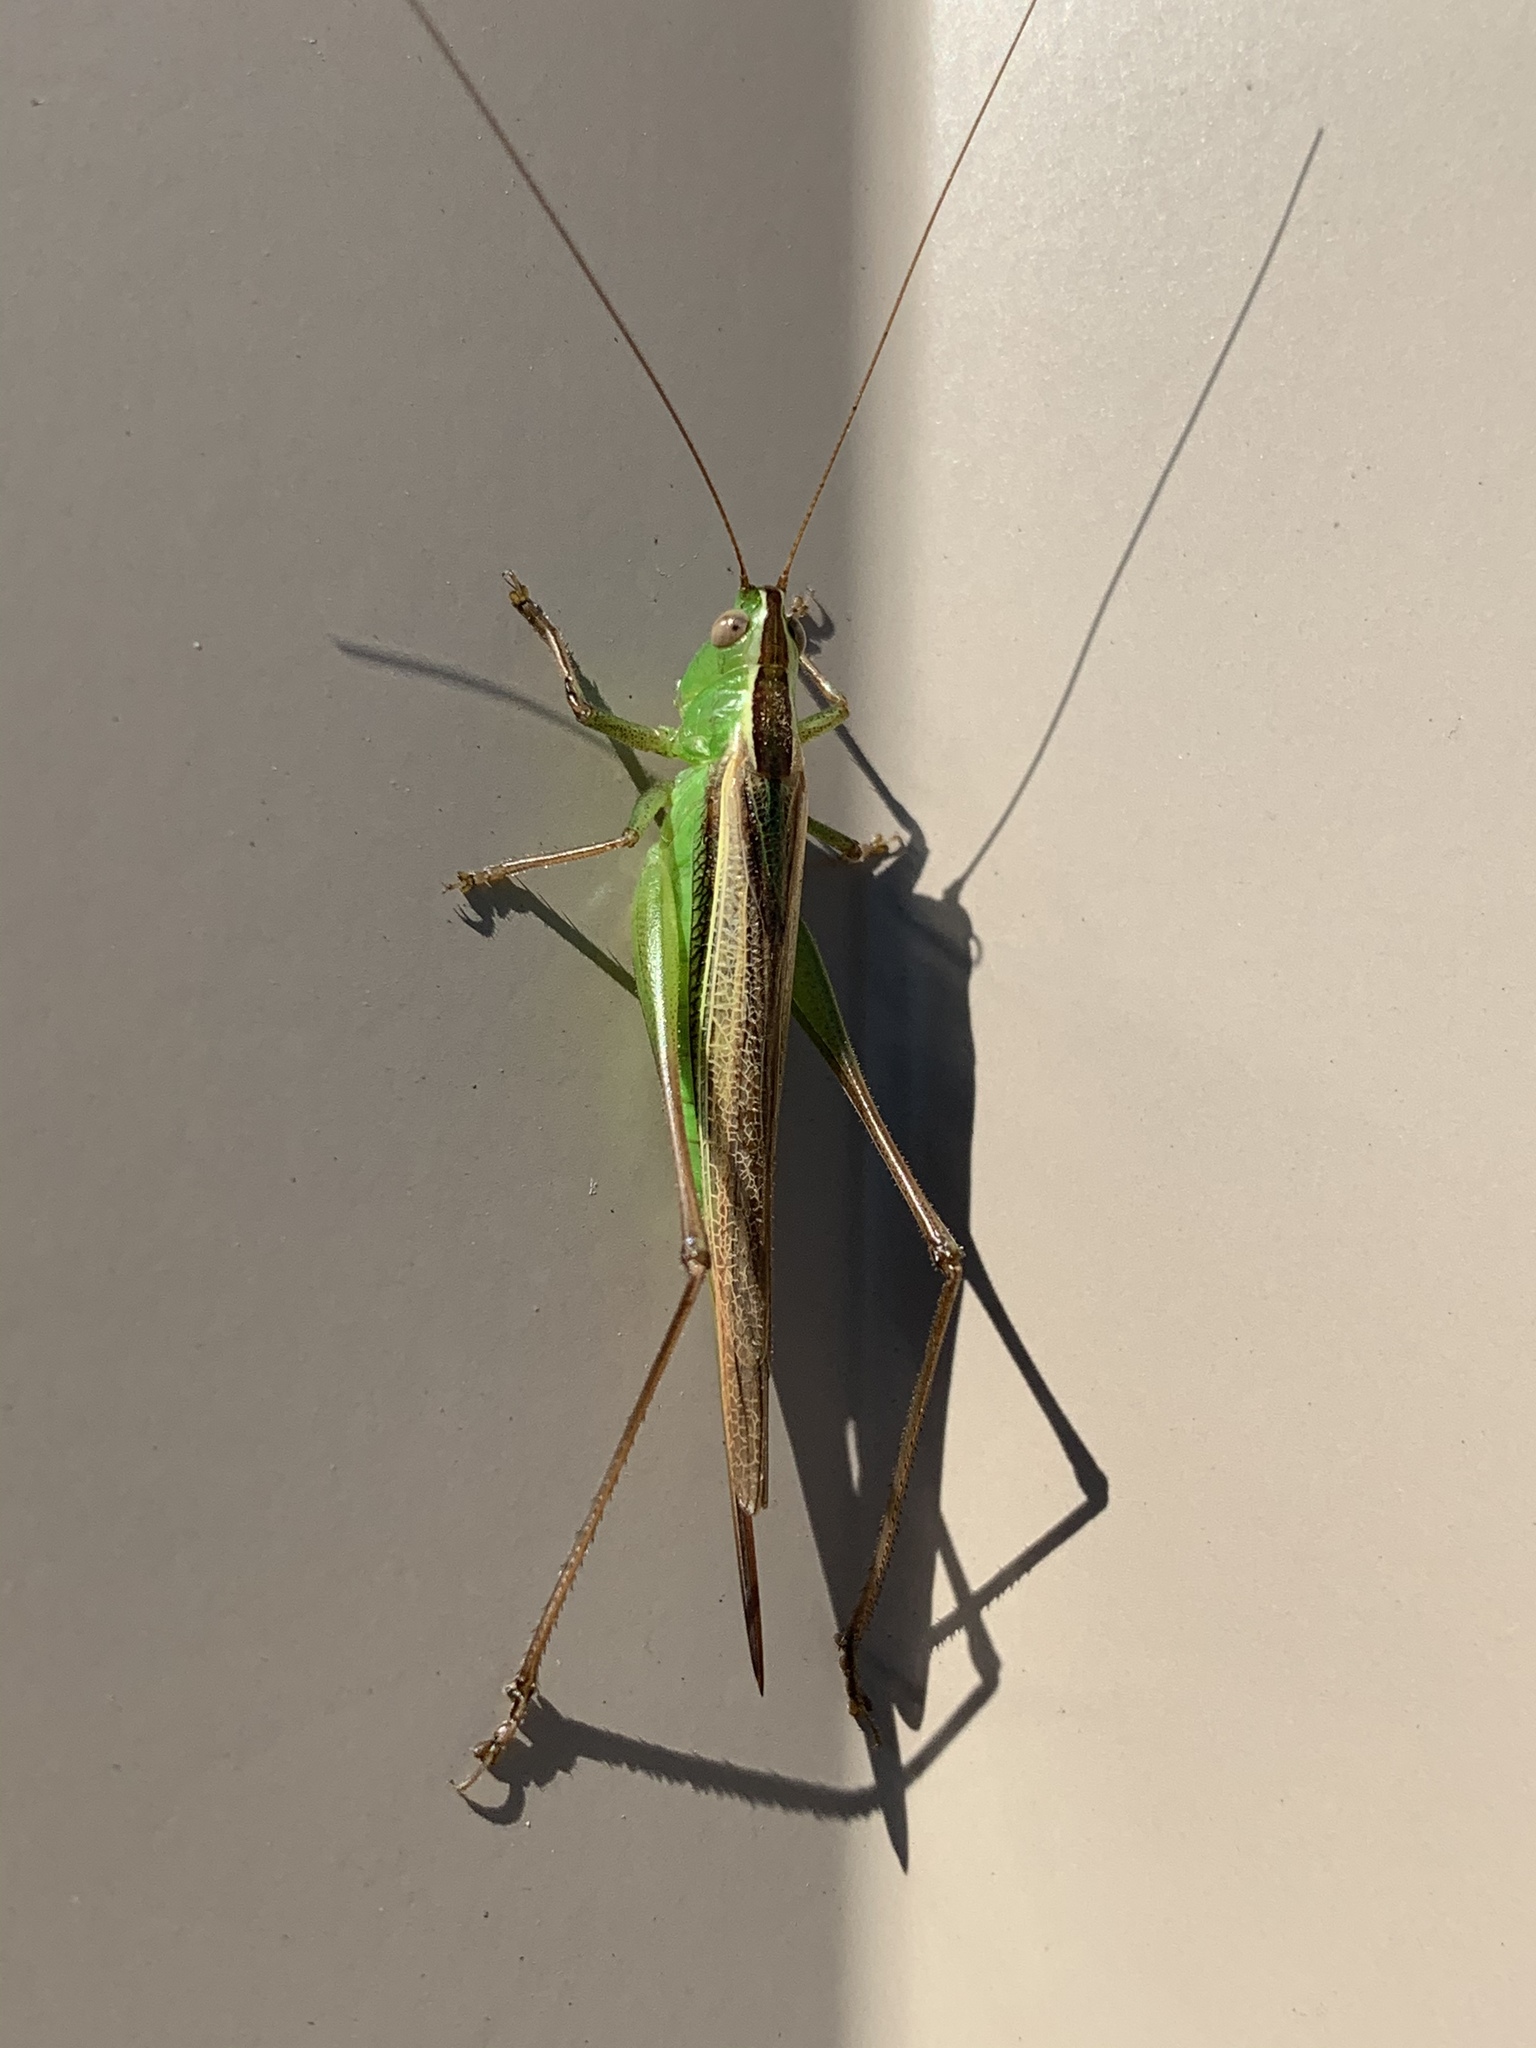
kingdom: Animalia
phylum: Arthropoda
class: Insecta
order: Orthoptera
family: Tettigoniidae
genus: Conocephalus
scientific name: Conocephalus albescens
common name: Whitish meadow katydid
